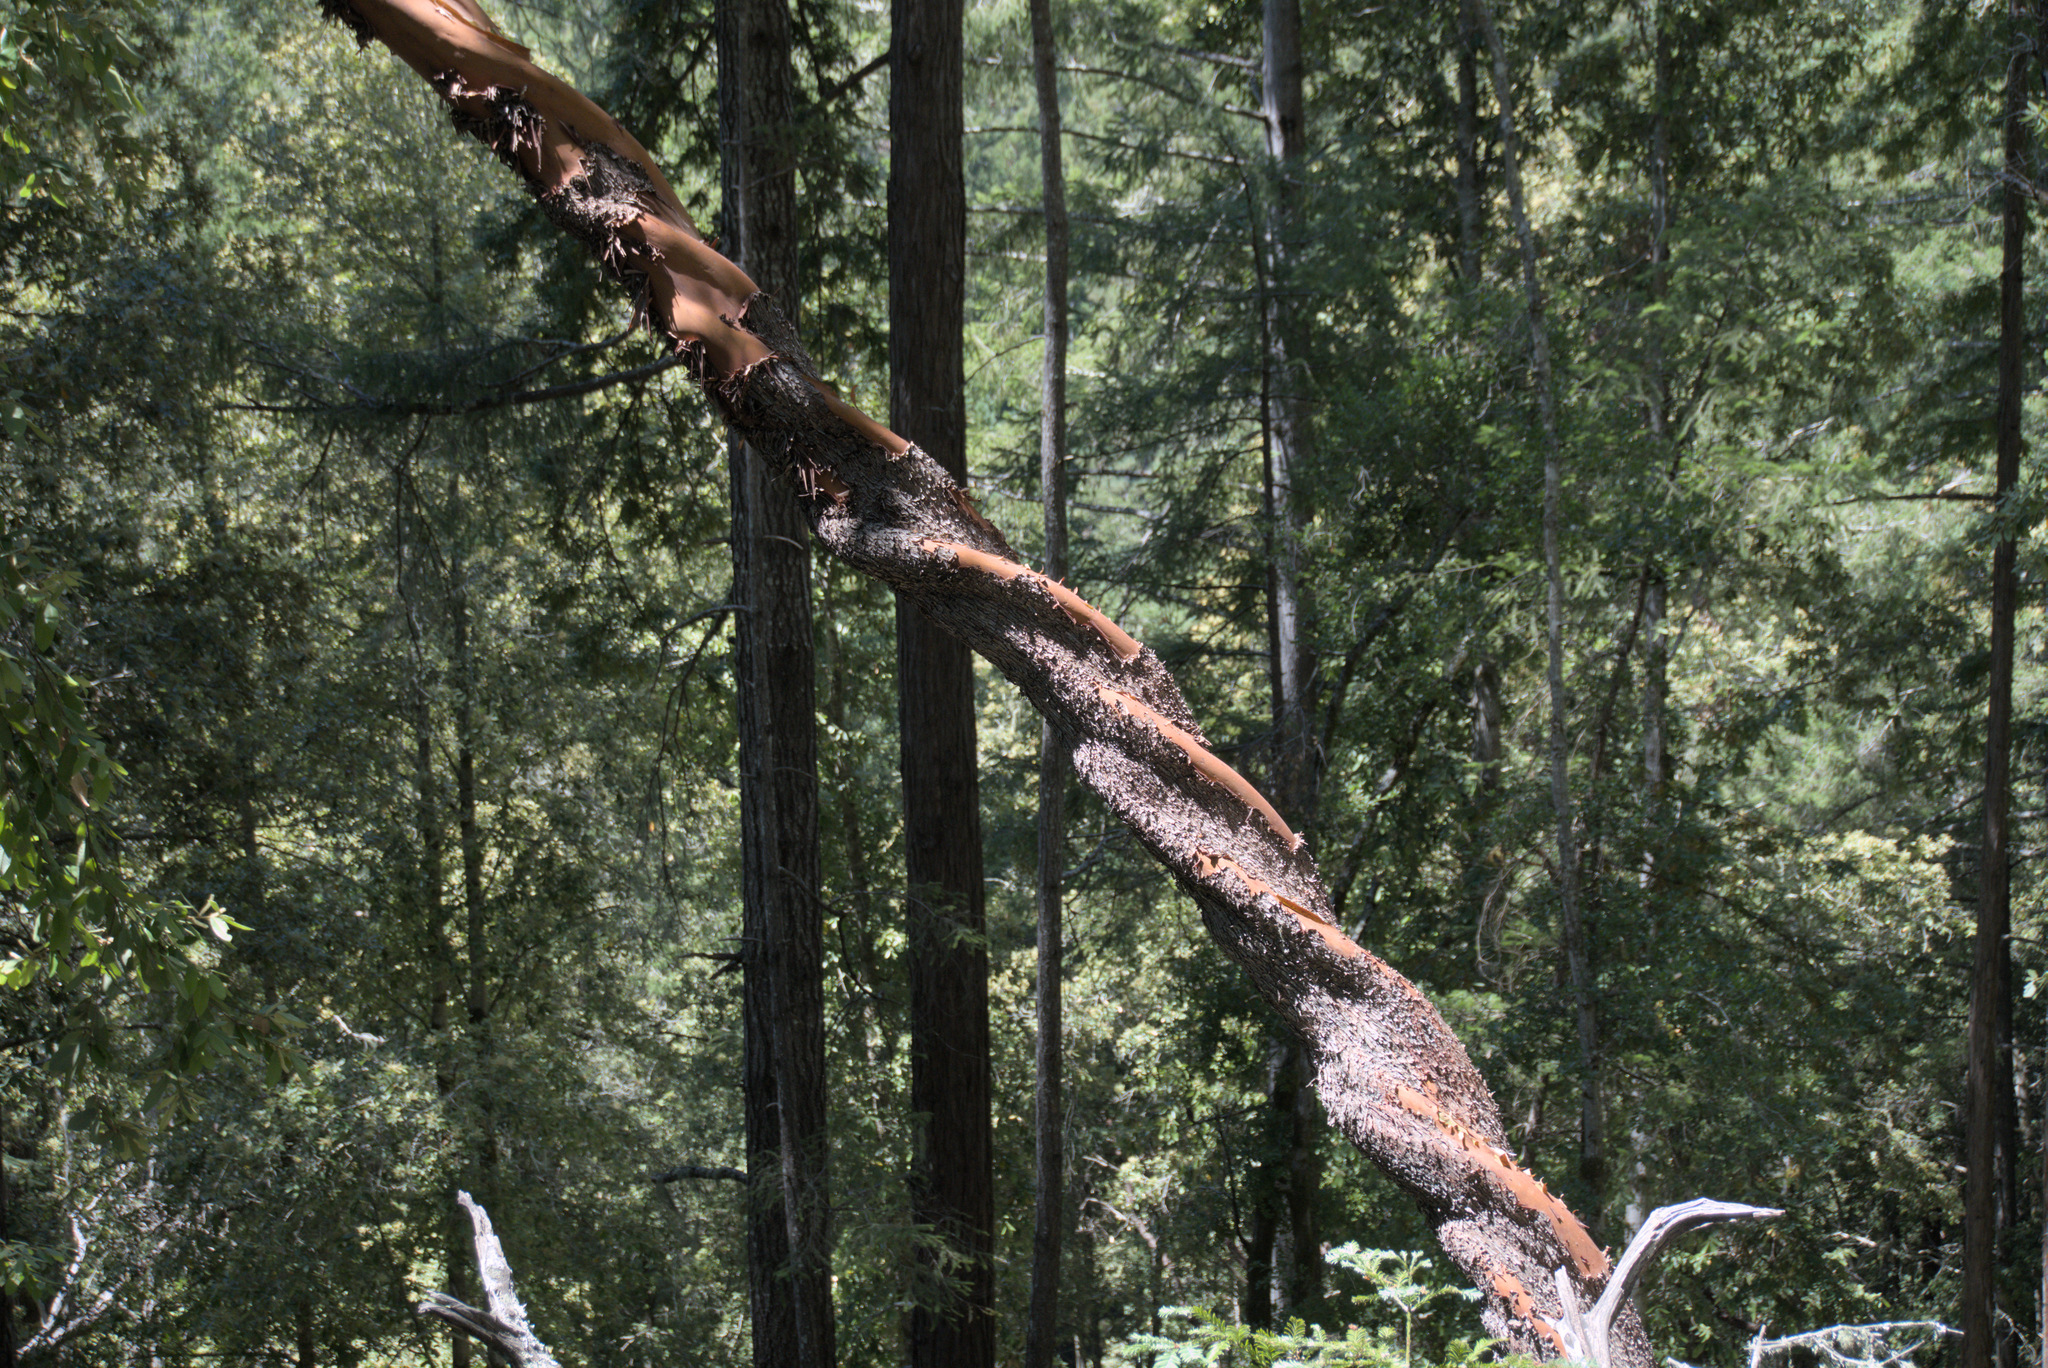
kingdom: Plantae
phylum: Tracheophyta
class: Magnoliopsida
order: Ericales
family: Ericaceae
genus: Arbutus
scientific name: Arbutus menziesii
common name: Pacific madrone
